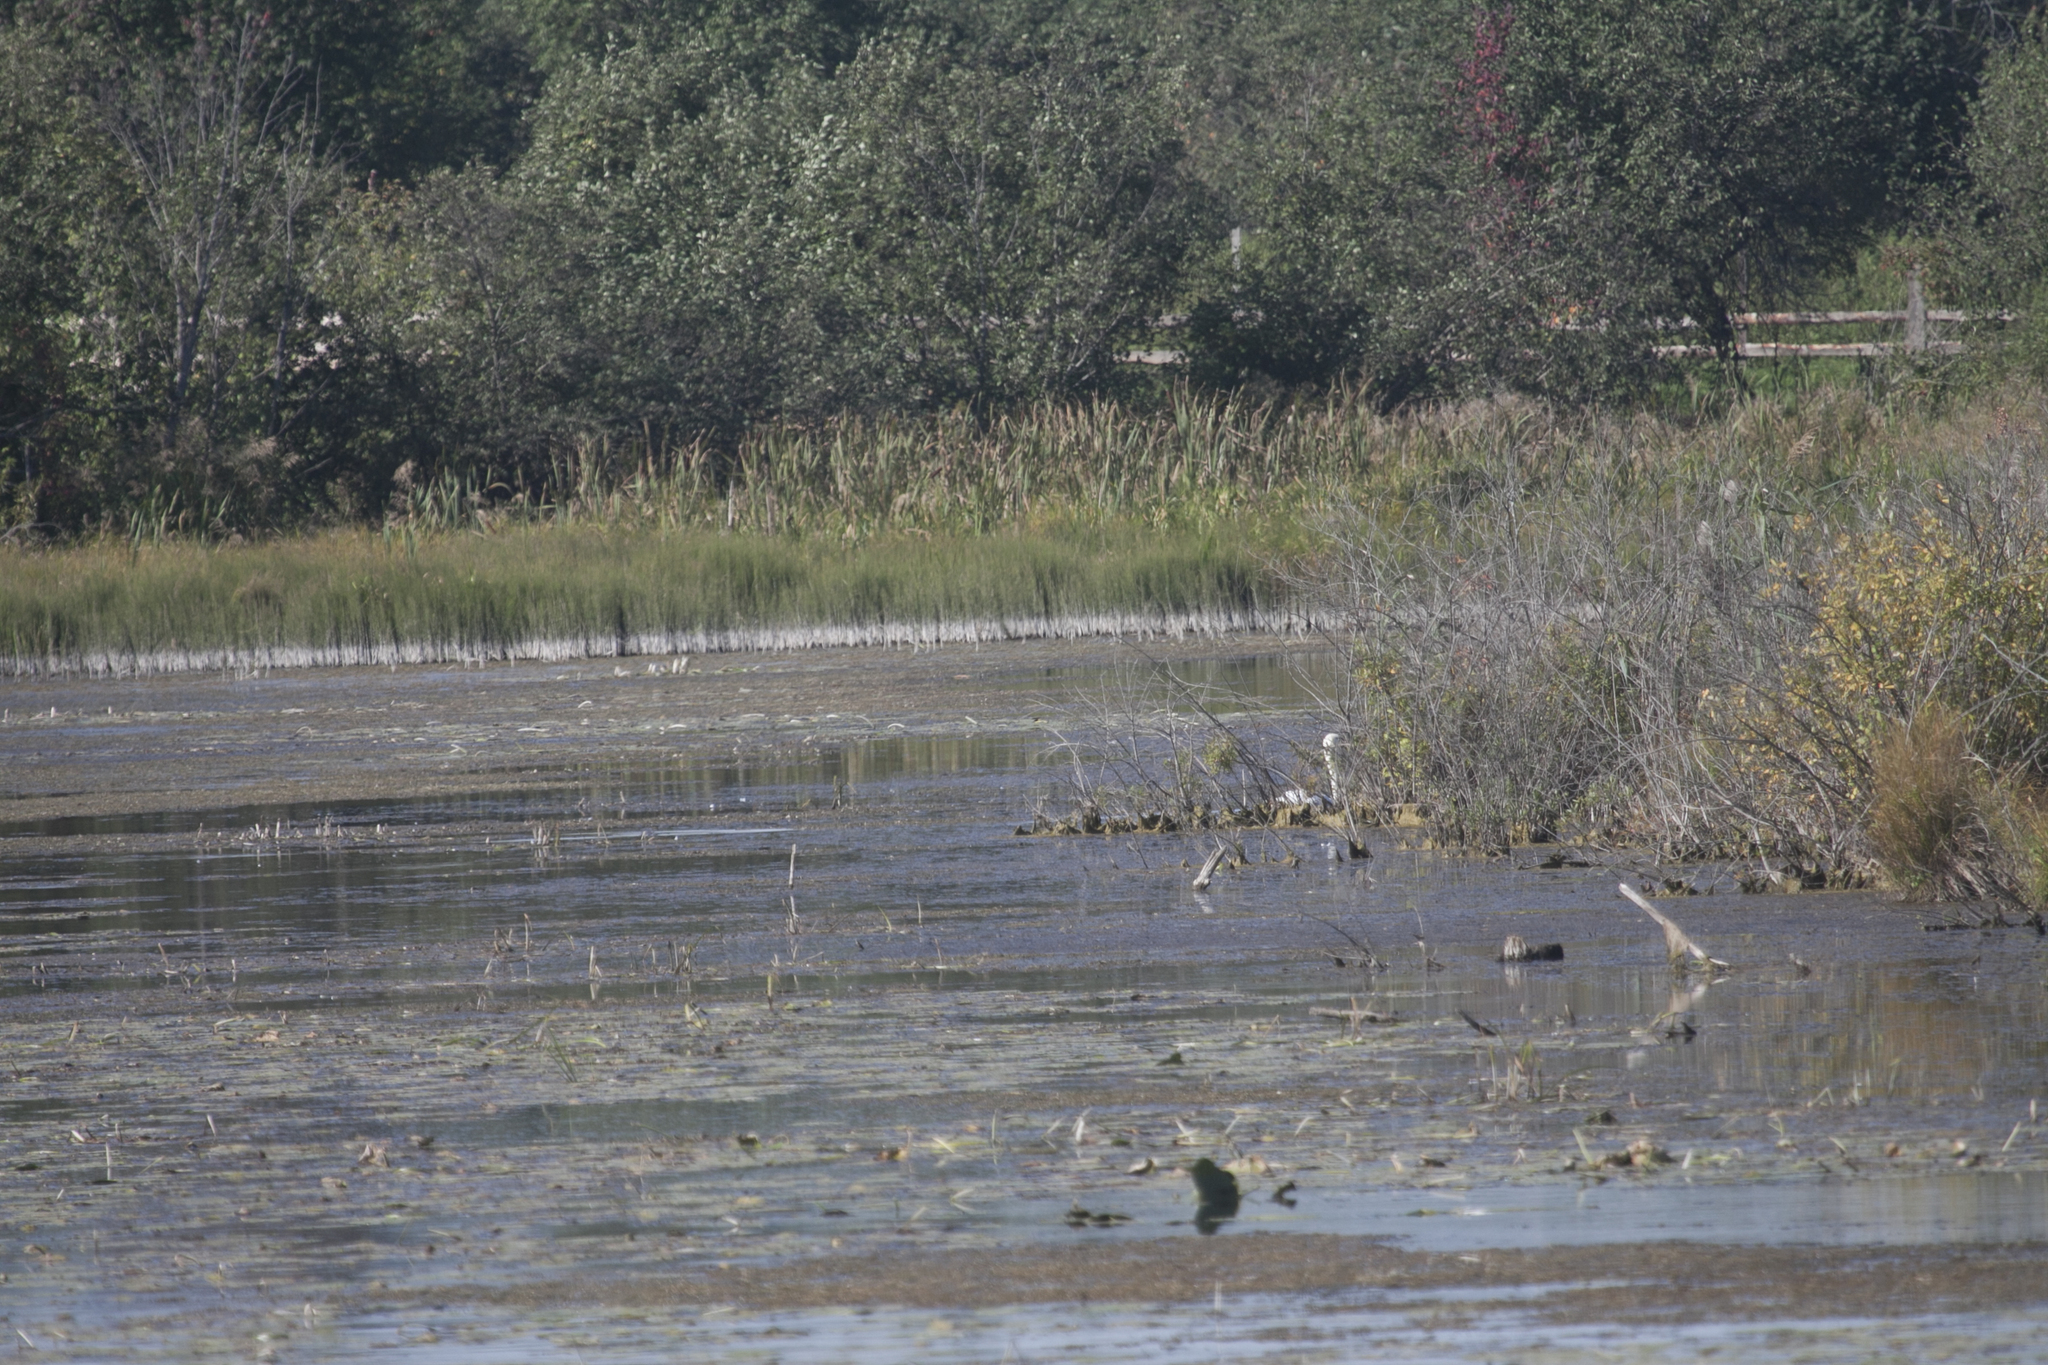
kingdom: Animalia
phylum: Chordata
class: Aves
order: Anseriformes
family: Anatidae
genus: Cygnus
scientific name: Cygnus olor
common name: Mute swan
